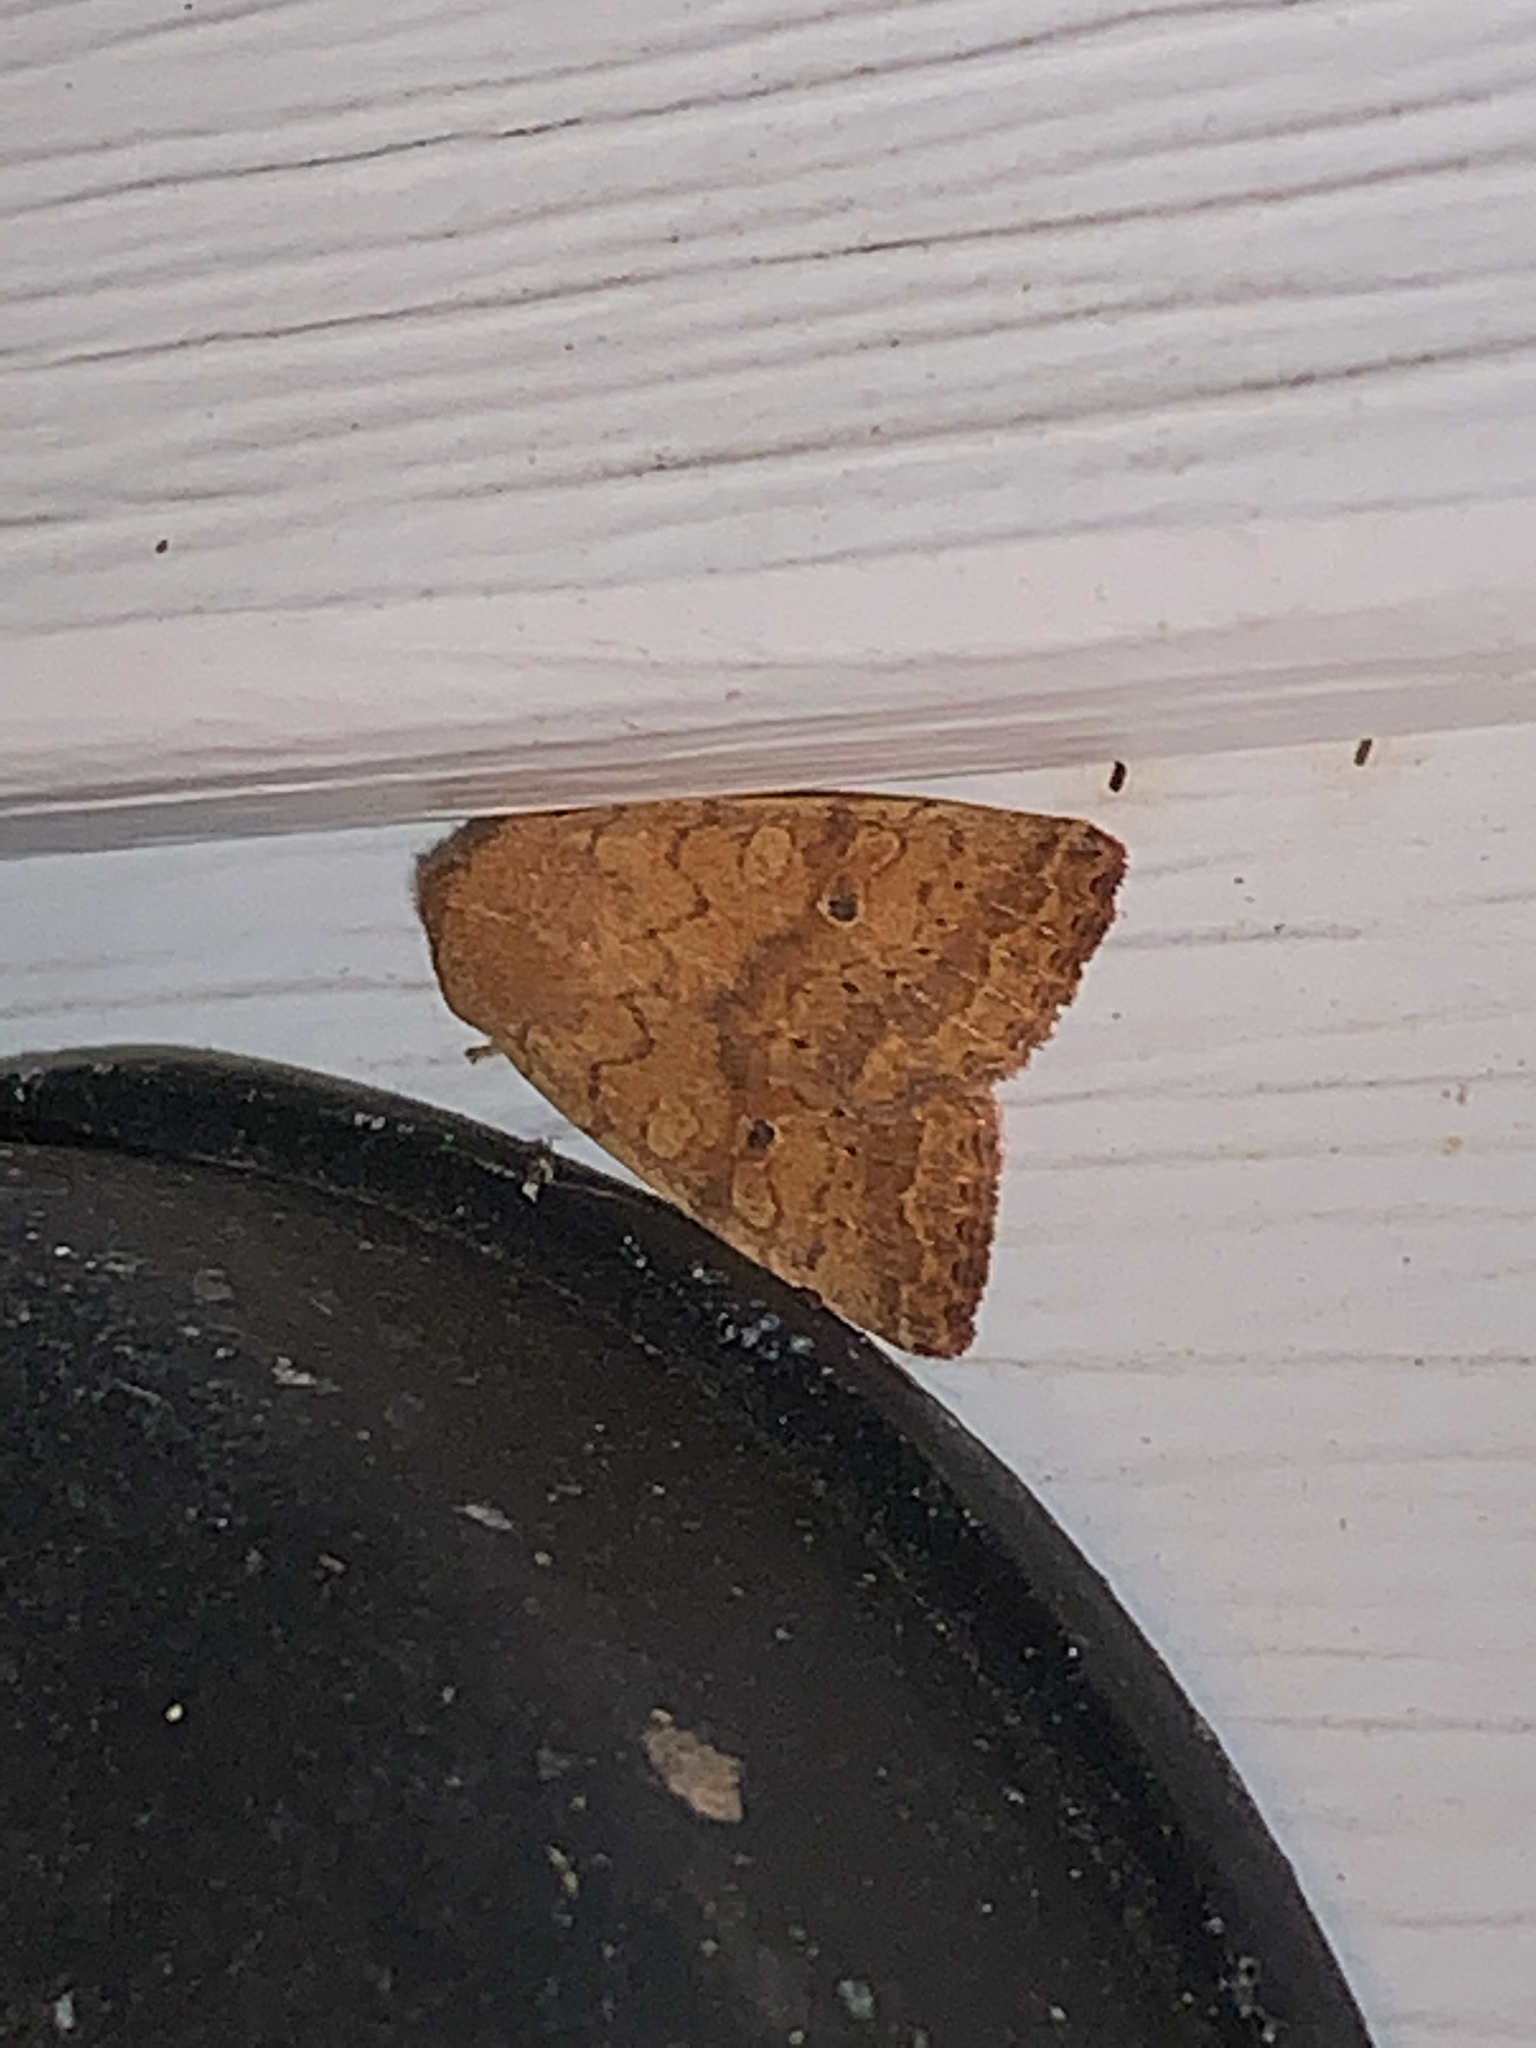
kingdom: Animalia
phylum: Arthropoda
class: Insecta
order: Lepidoptera
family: Noctuidae
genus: Agrochola
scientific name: Agrochola bicolorago
